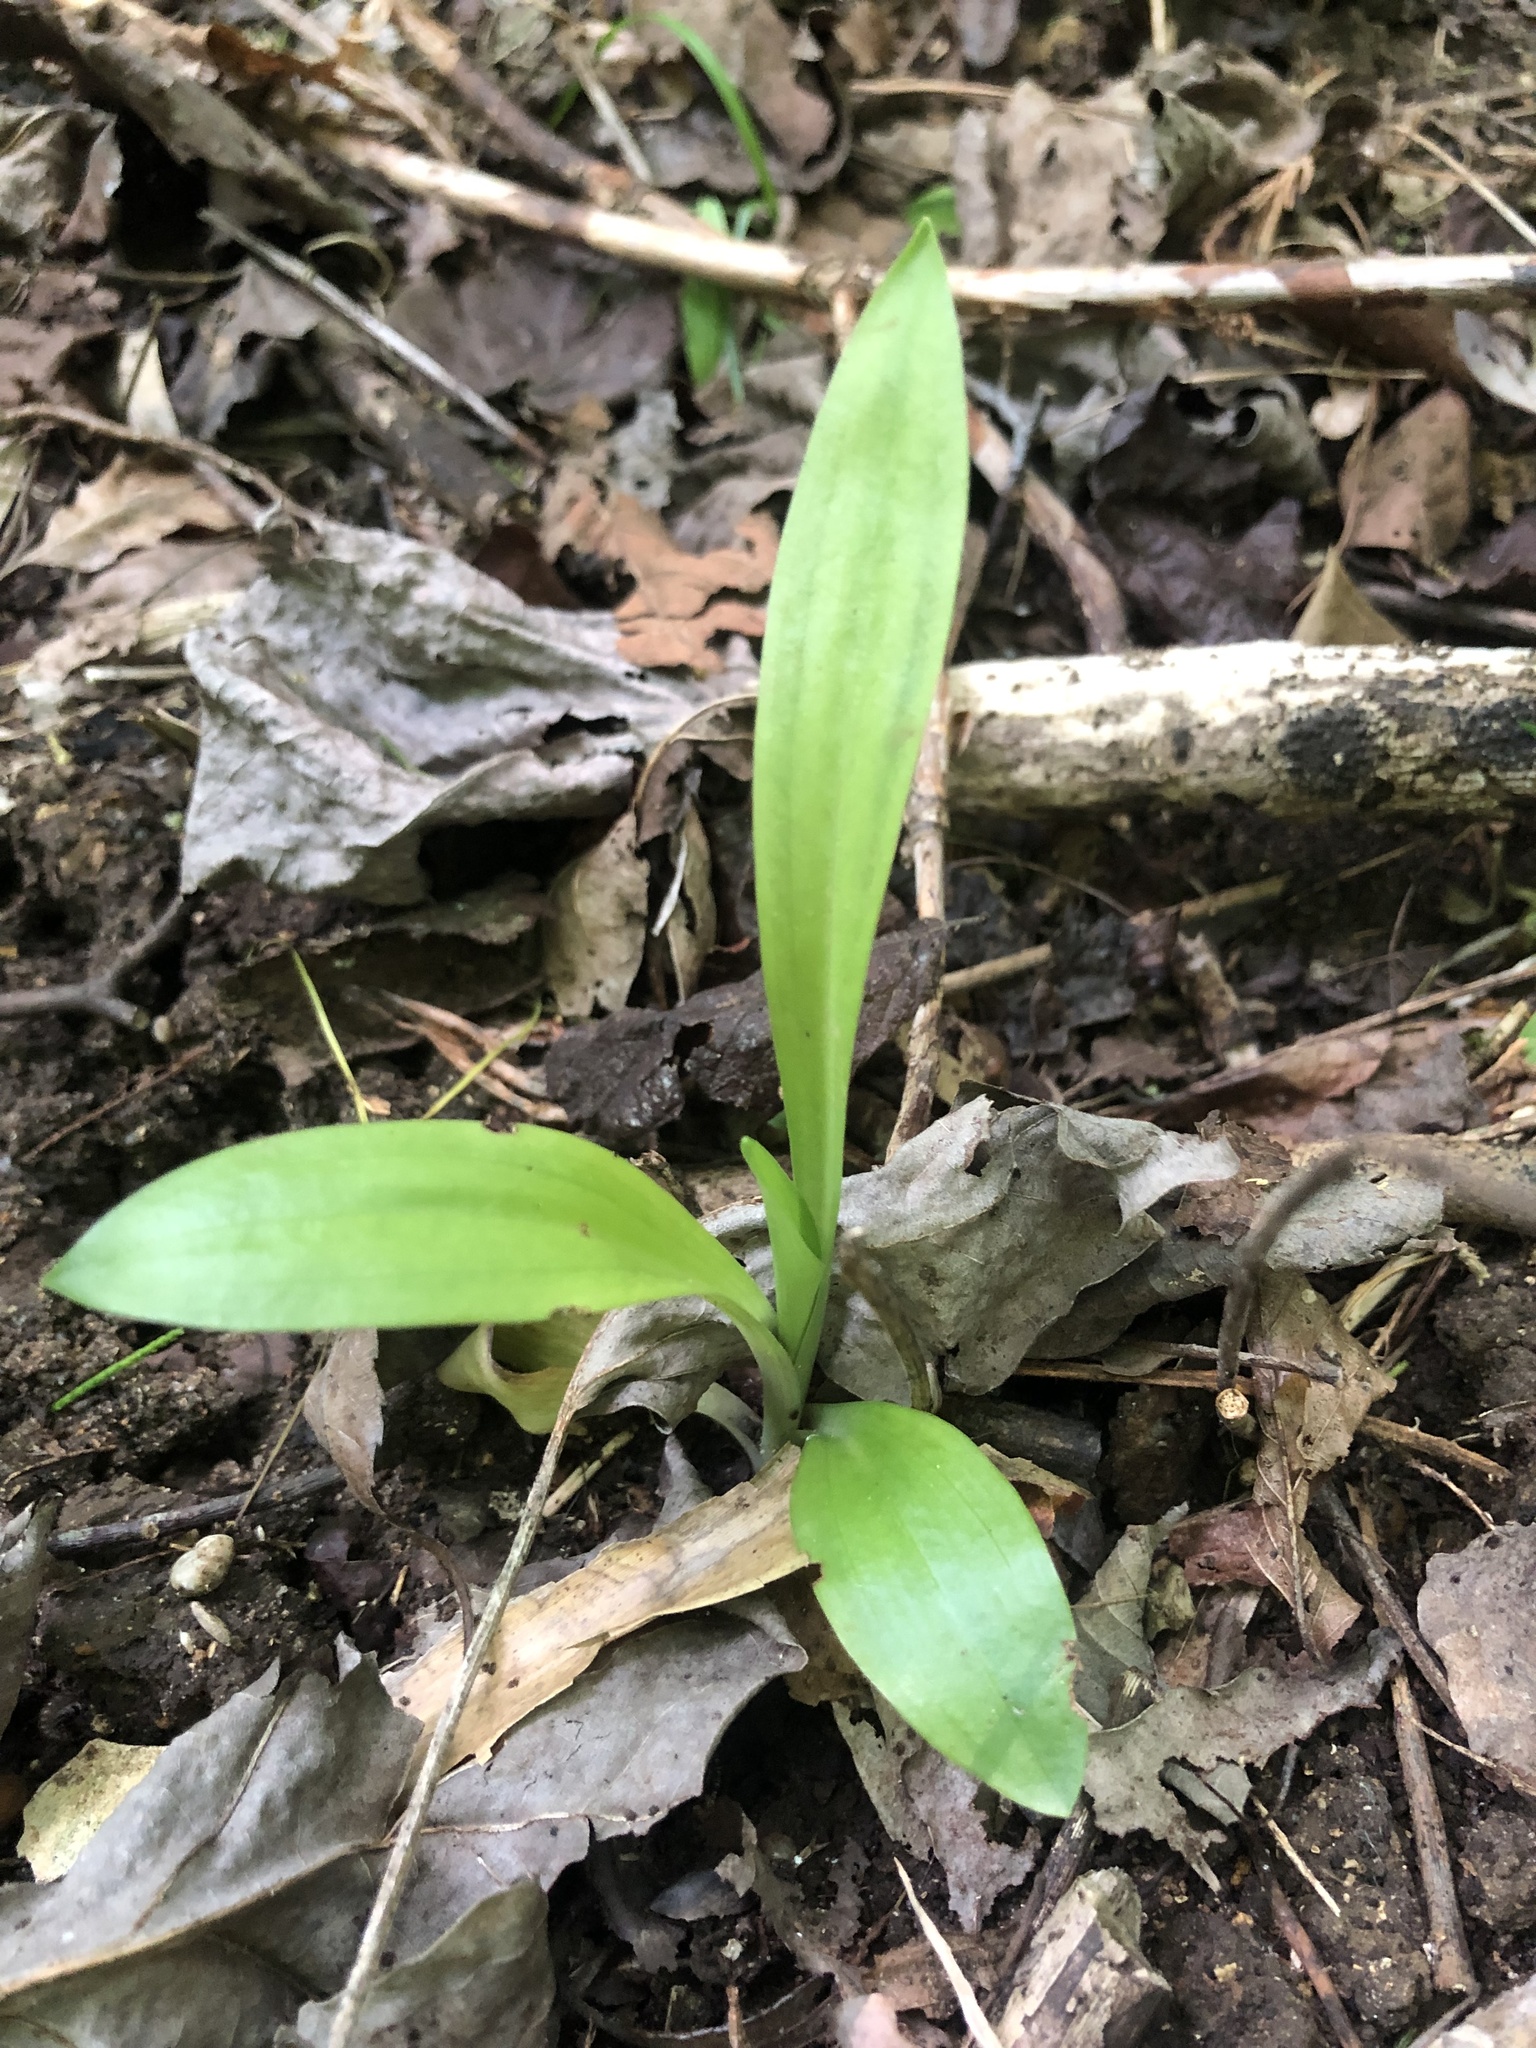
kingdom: Plantae
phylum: Tracheophyta
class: Liliopsida
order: Asparagales
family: Orchidaceae
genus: Spiranthes
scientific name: Spiranthes ovalis
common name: October ladies'-tresses
